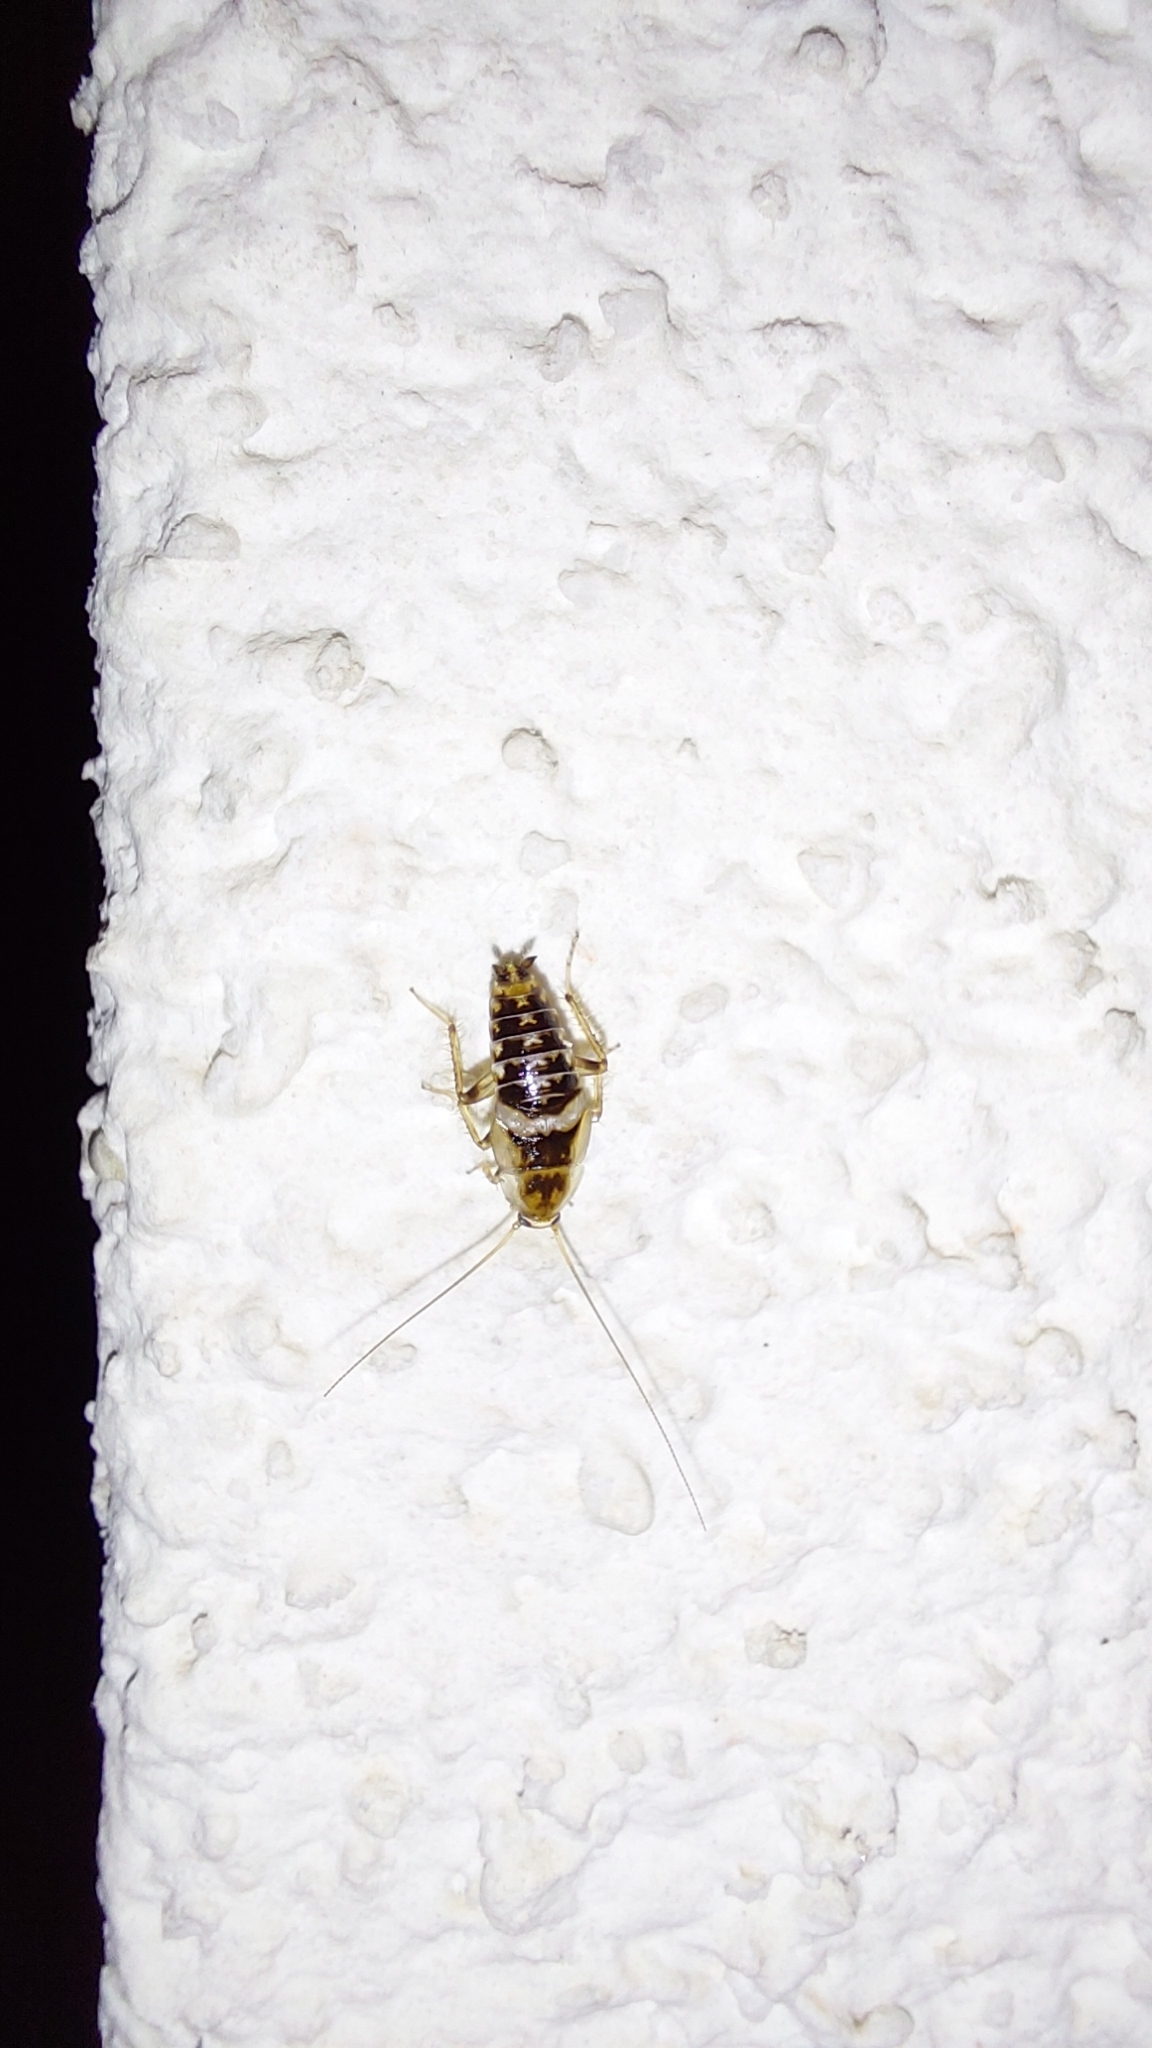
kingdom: Animalia
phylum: Arthropoda
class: Insecta
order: Blattodea
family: Ectobiidae
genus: Planuncus
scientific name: Planuncus tingitanus
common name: Variable cockroach
